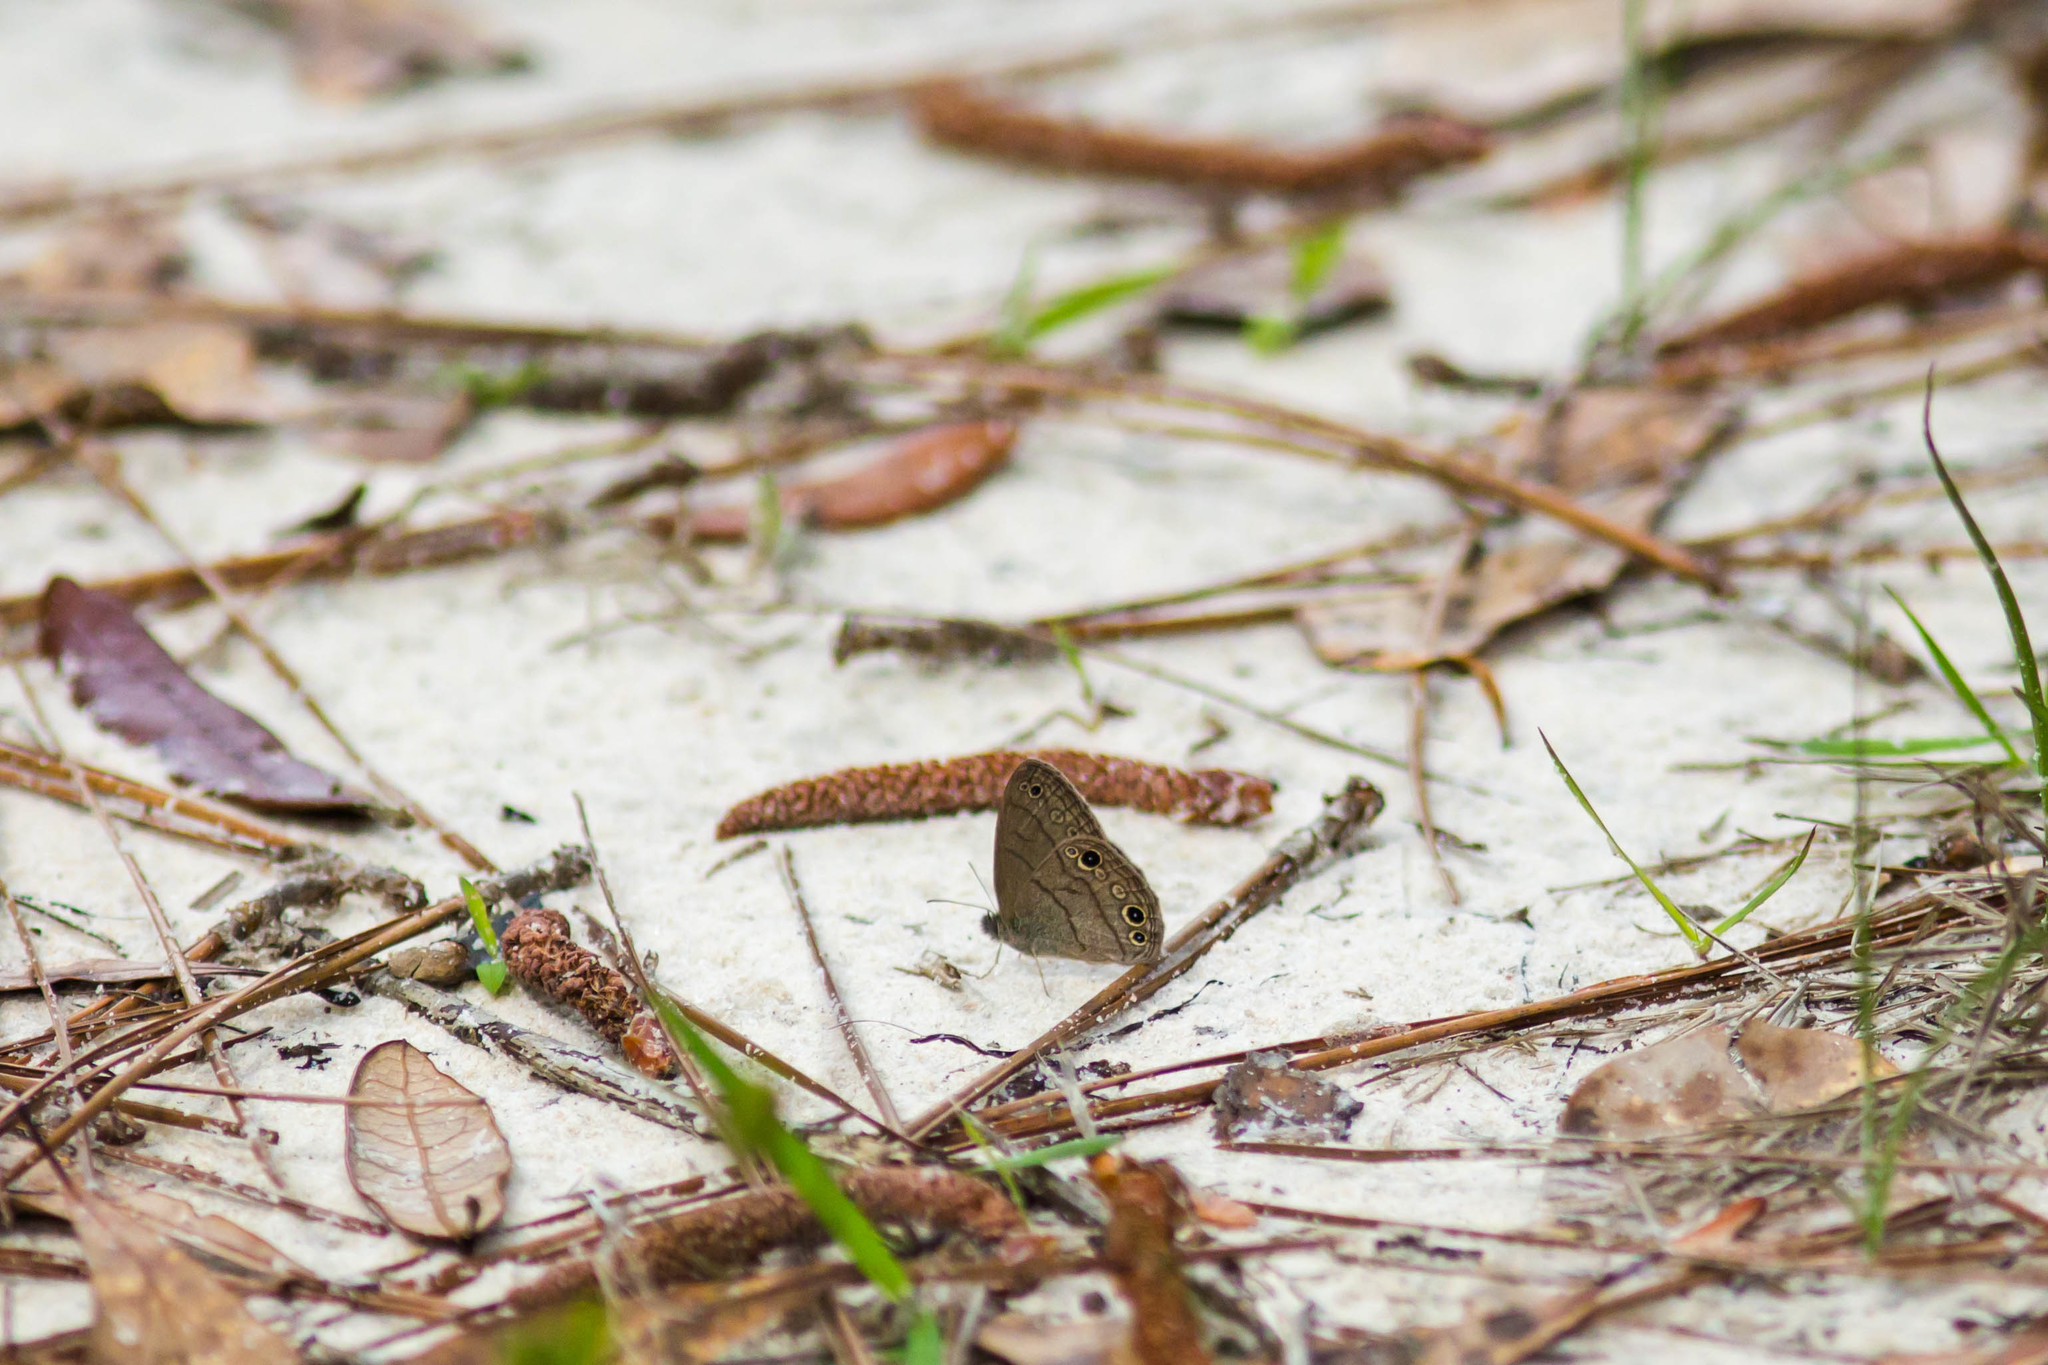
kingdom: Animalia
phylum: Arthropoda
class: Insecta
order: Lepidoptera
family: Nymphalidae
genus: Hermeuptychia
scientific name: Hermeuptychia hermes
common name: Hermes satyr
